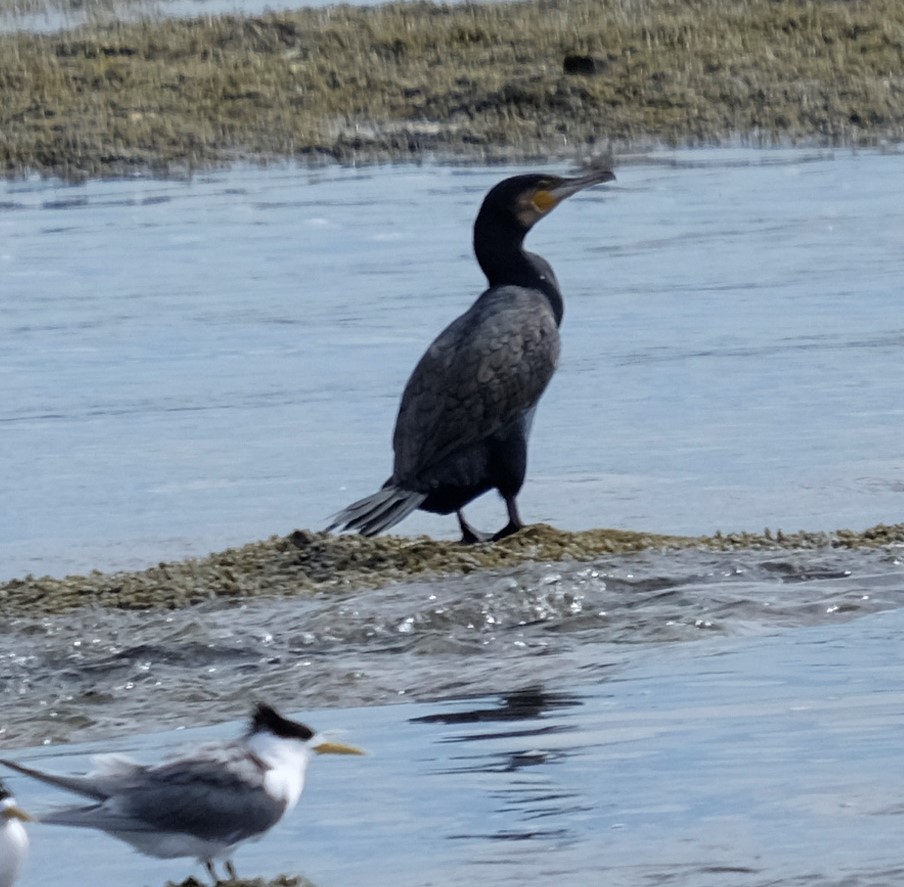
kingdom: Animalia
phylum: Chordata
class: Aves
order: Suliformes
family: Phalacrocoracidae
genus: Phalacrocorax
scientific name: Phalacrocorax carbo
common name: Great cormorant
